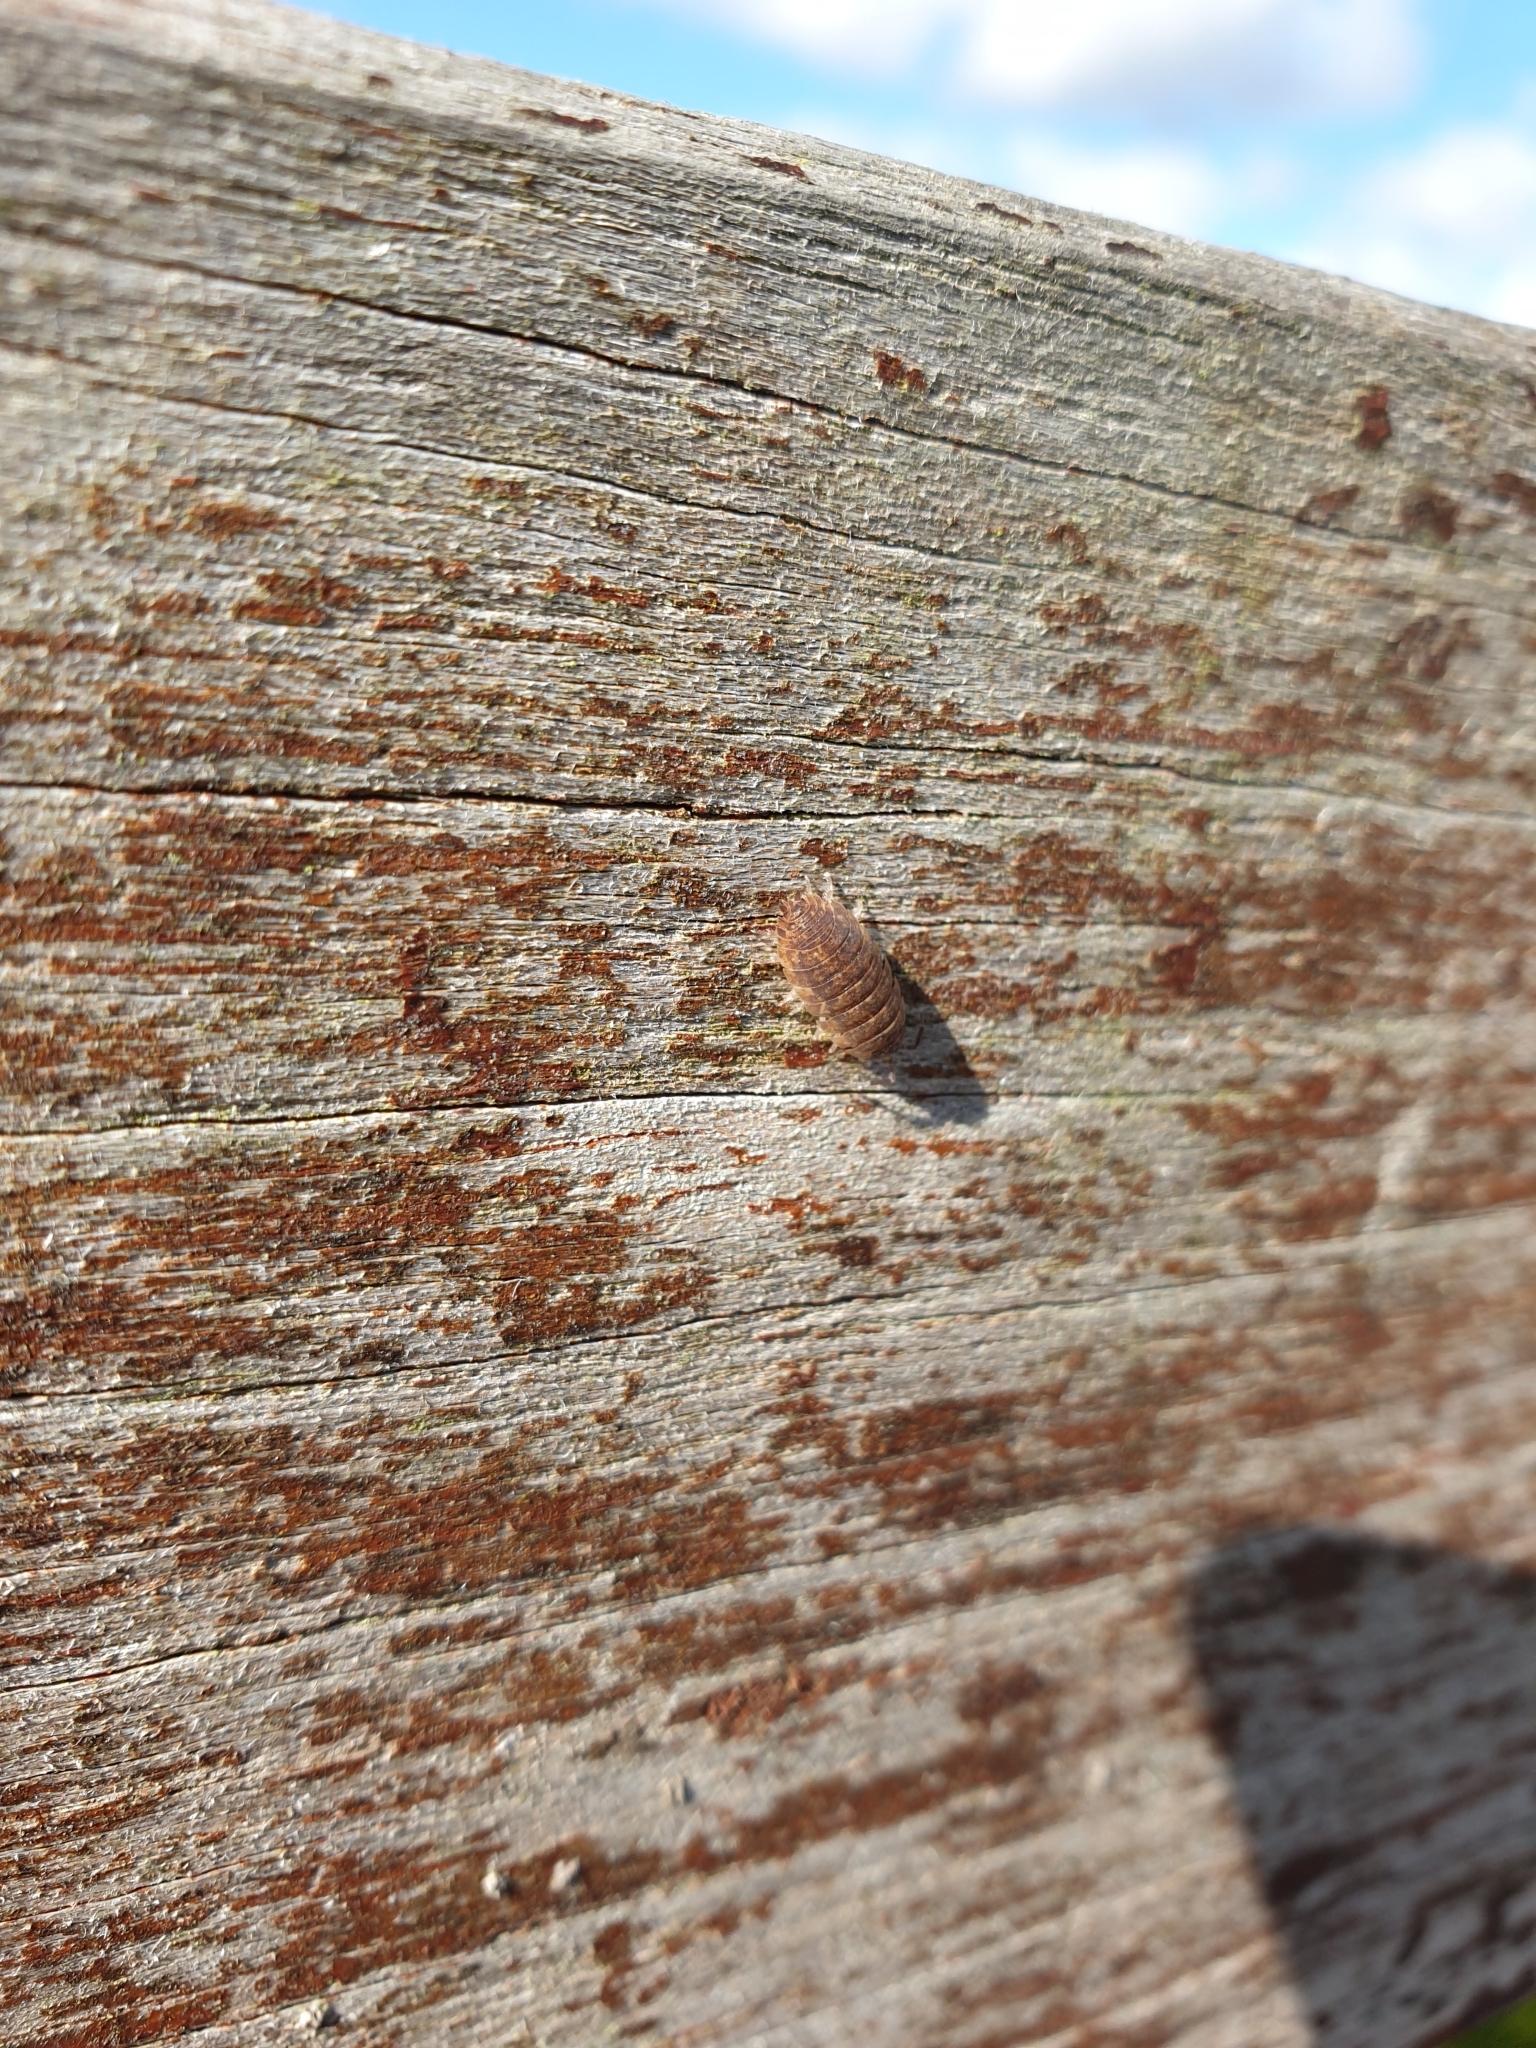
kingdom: Animalia
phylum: Arthropoda
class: Malacostraca
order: Isopoda
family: Porcellionidae
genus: Porcellio
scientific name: Porcellio scaber
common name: Common rough woodlouse
